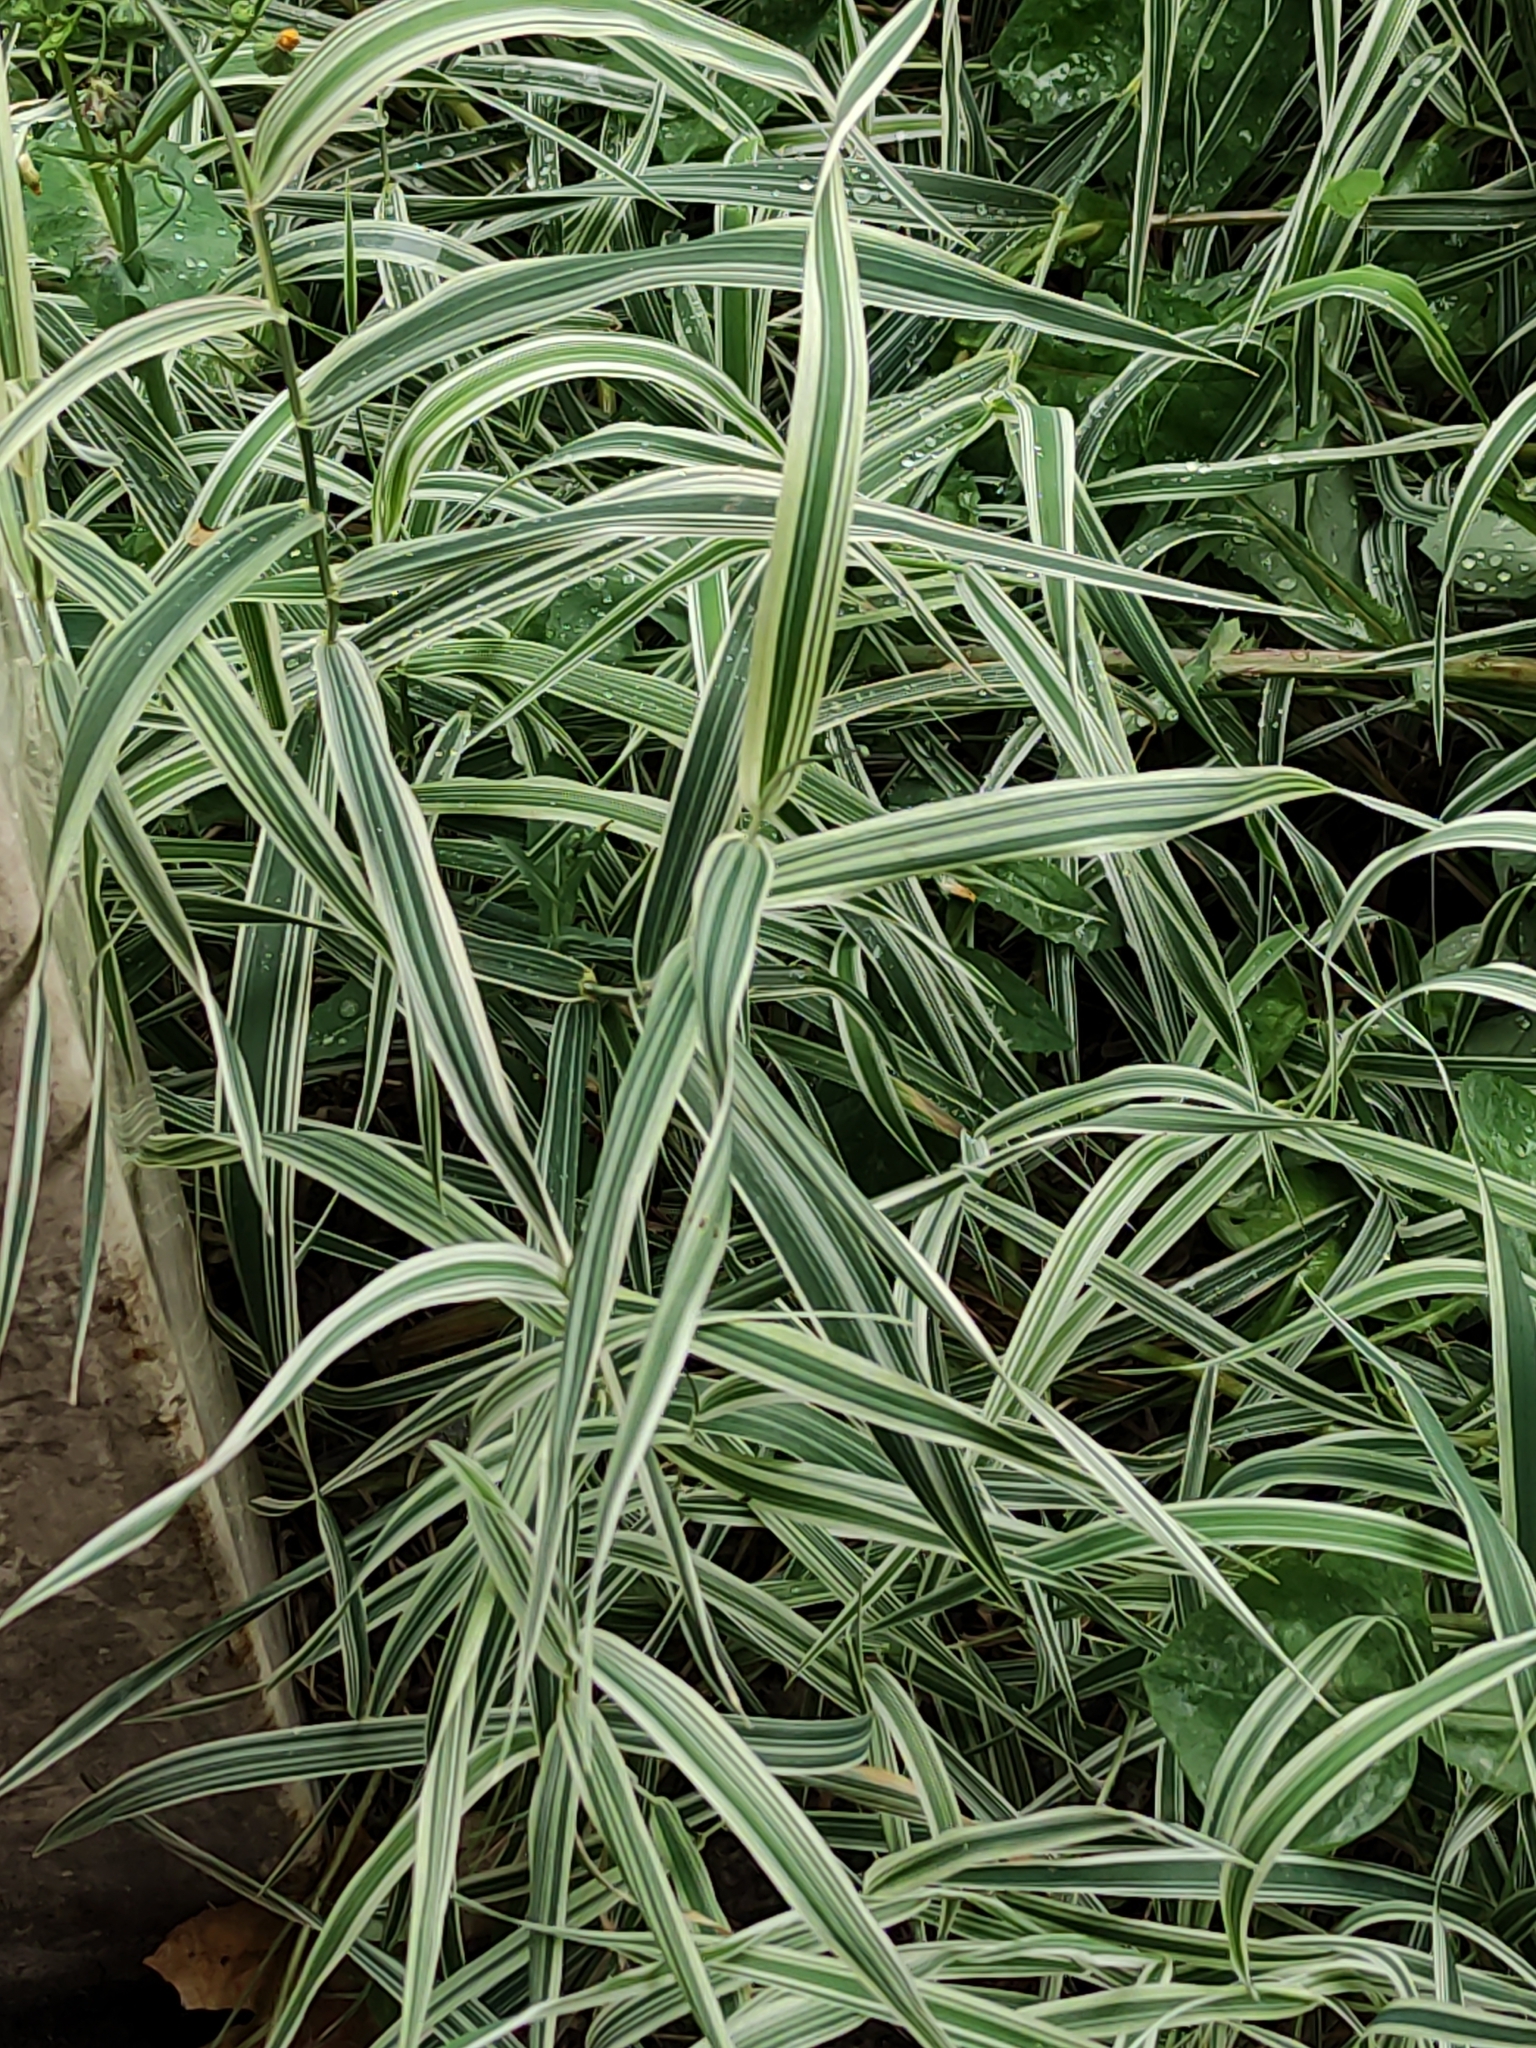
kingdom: Plantae
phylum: Tracheophyta
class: Liliopsida
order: Poales
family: Poaceae
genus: Phalaris
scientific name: Phalaris arundinacea
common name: Reed canary-grass
